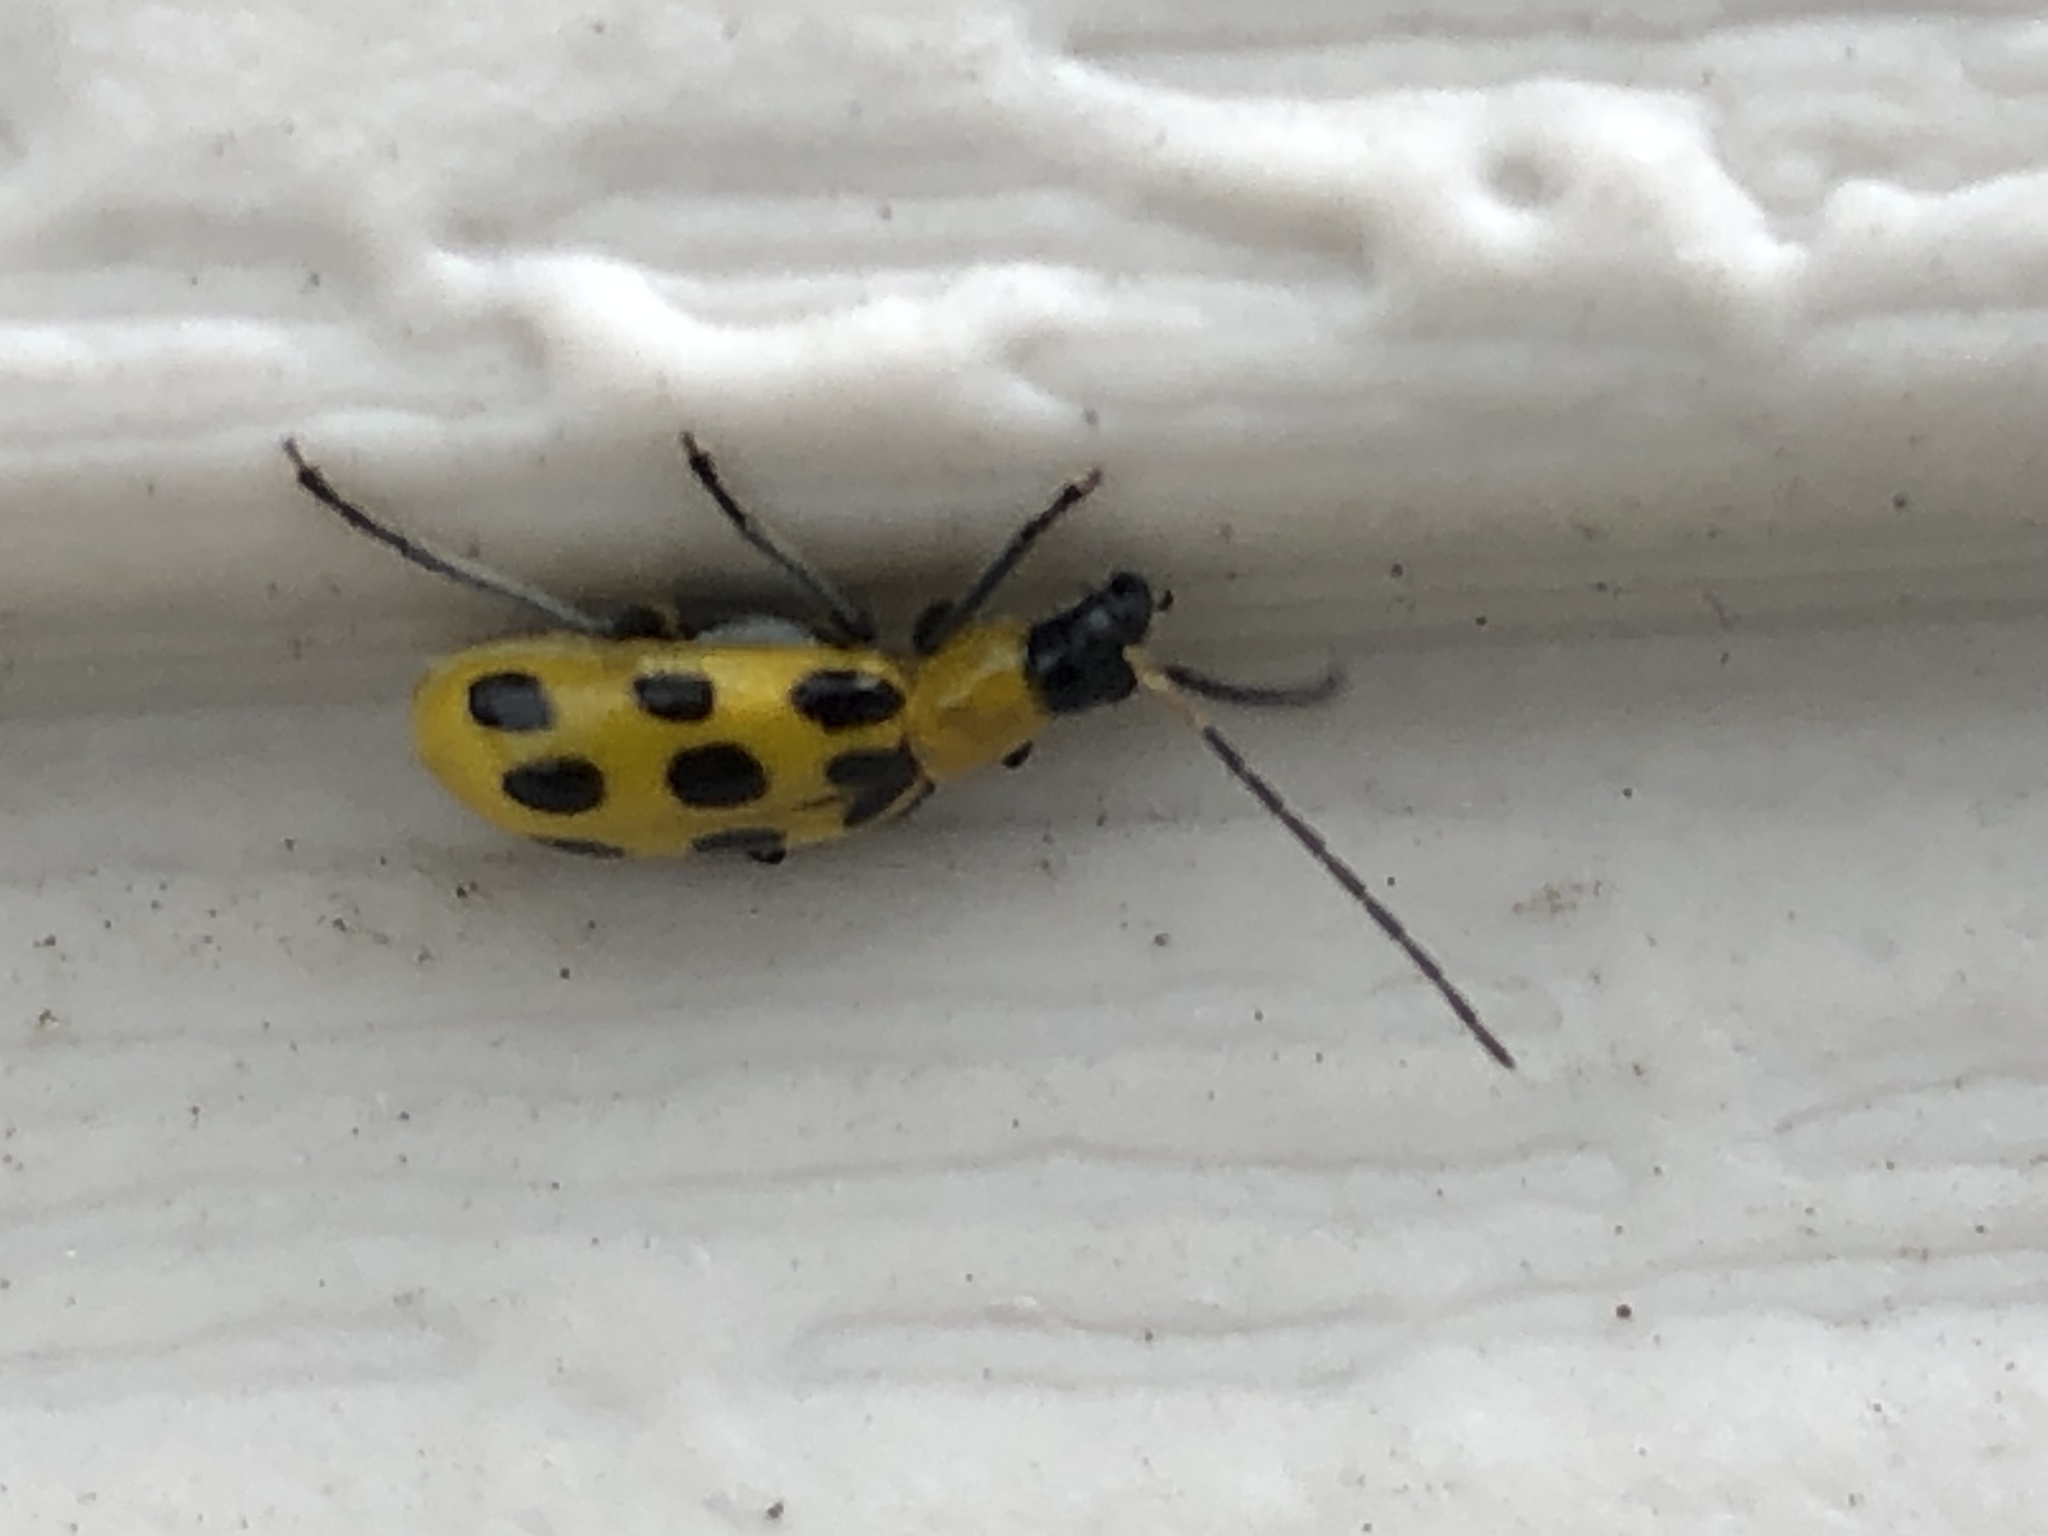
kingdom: Animalia
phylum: Arthropoda
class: Insecta
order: Coleoptera
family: Chrysomelidae
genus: Diabrotica
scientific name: Diabrotica undecimpunctata
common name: Spotted cucumber beetle
